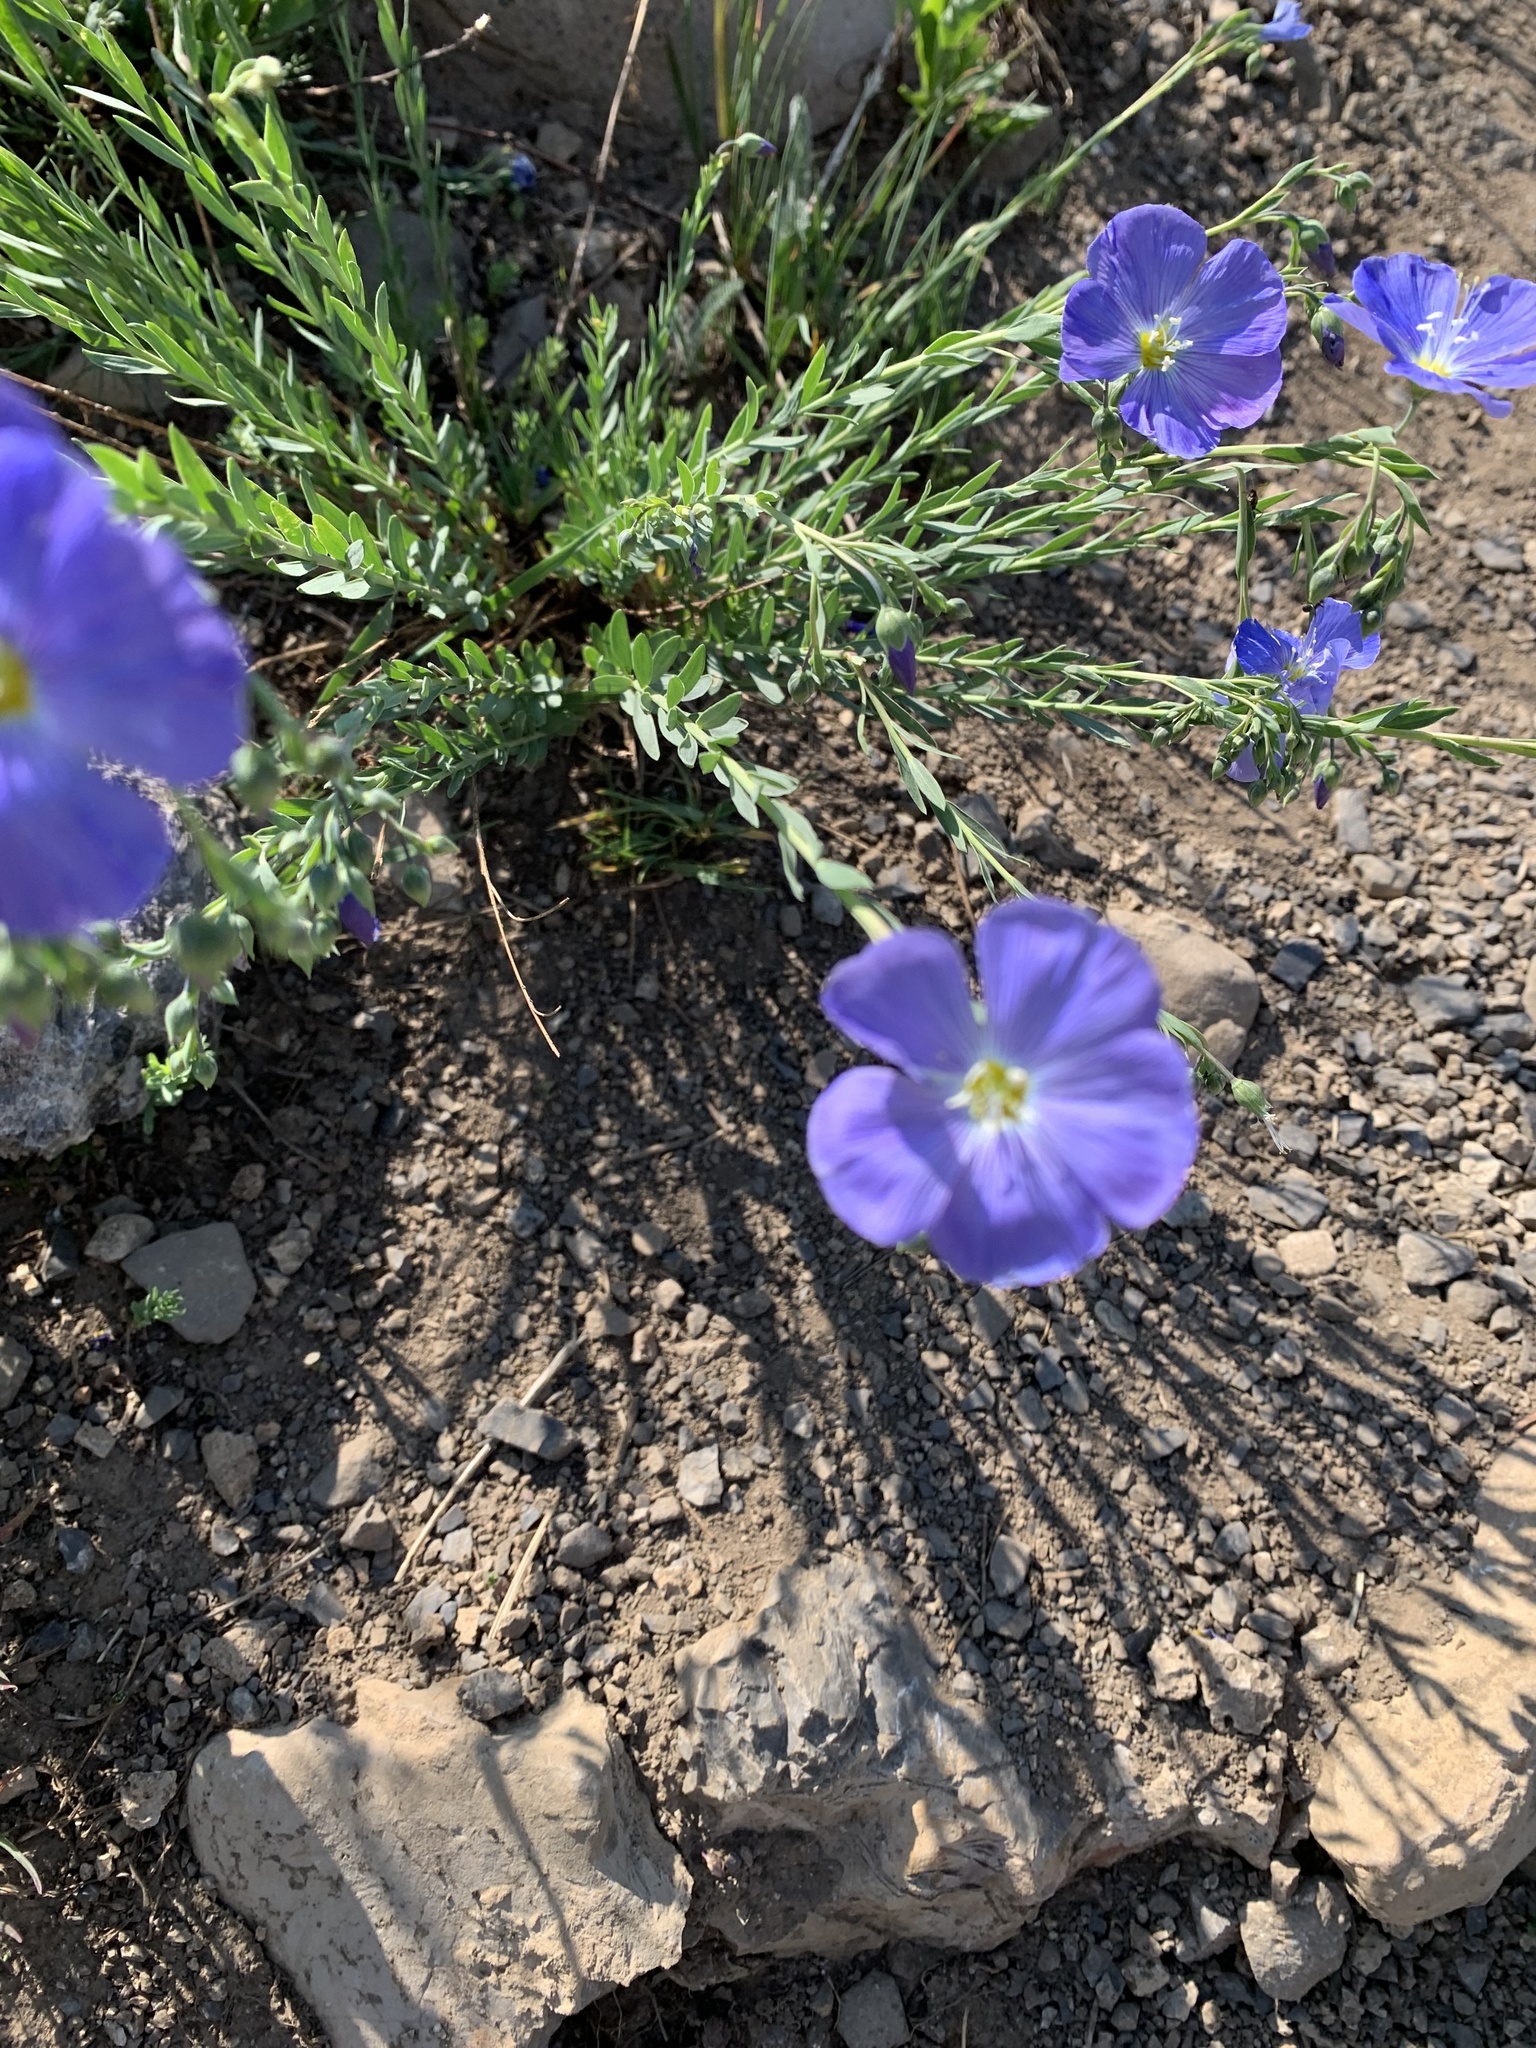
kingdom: Plantae
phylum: Tracheophyta
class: Magnoliopsida
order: Malpighiales
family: Linaceae
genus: Linum
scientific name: Linum lewisii
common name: Prairie flax
